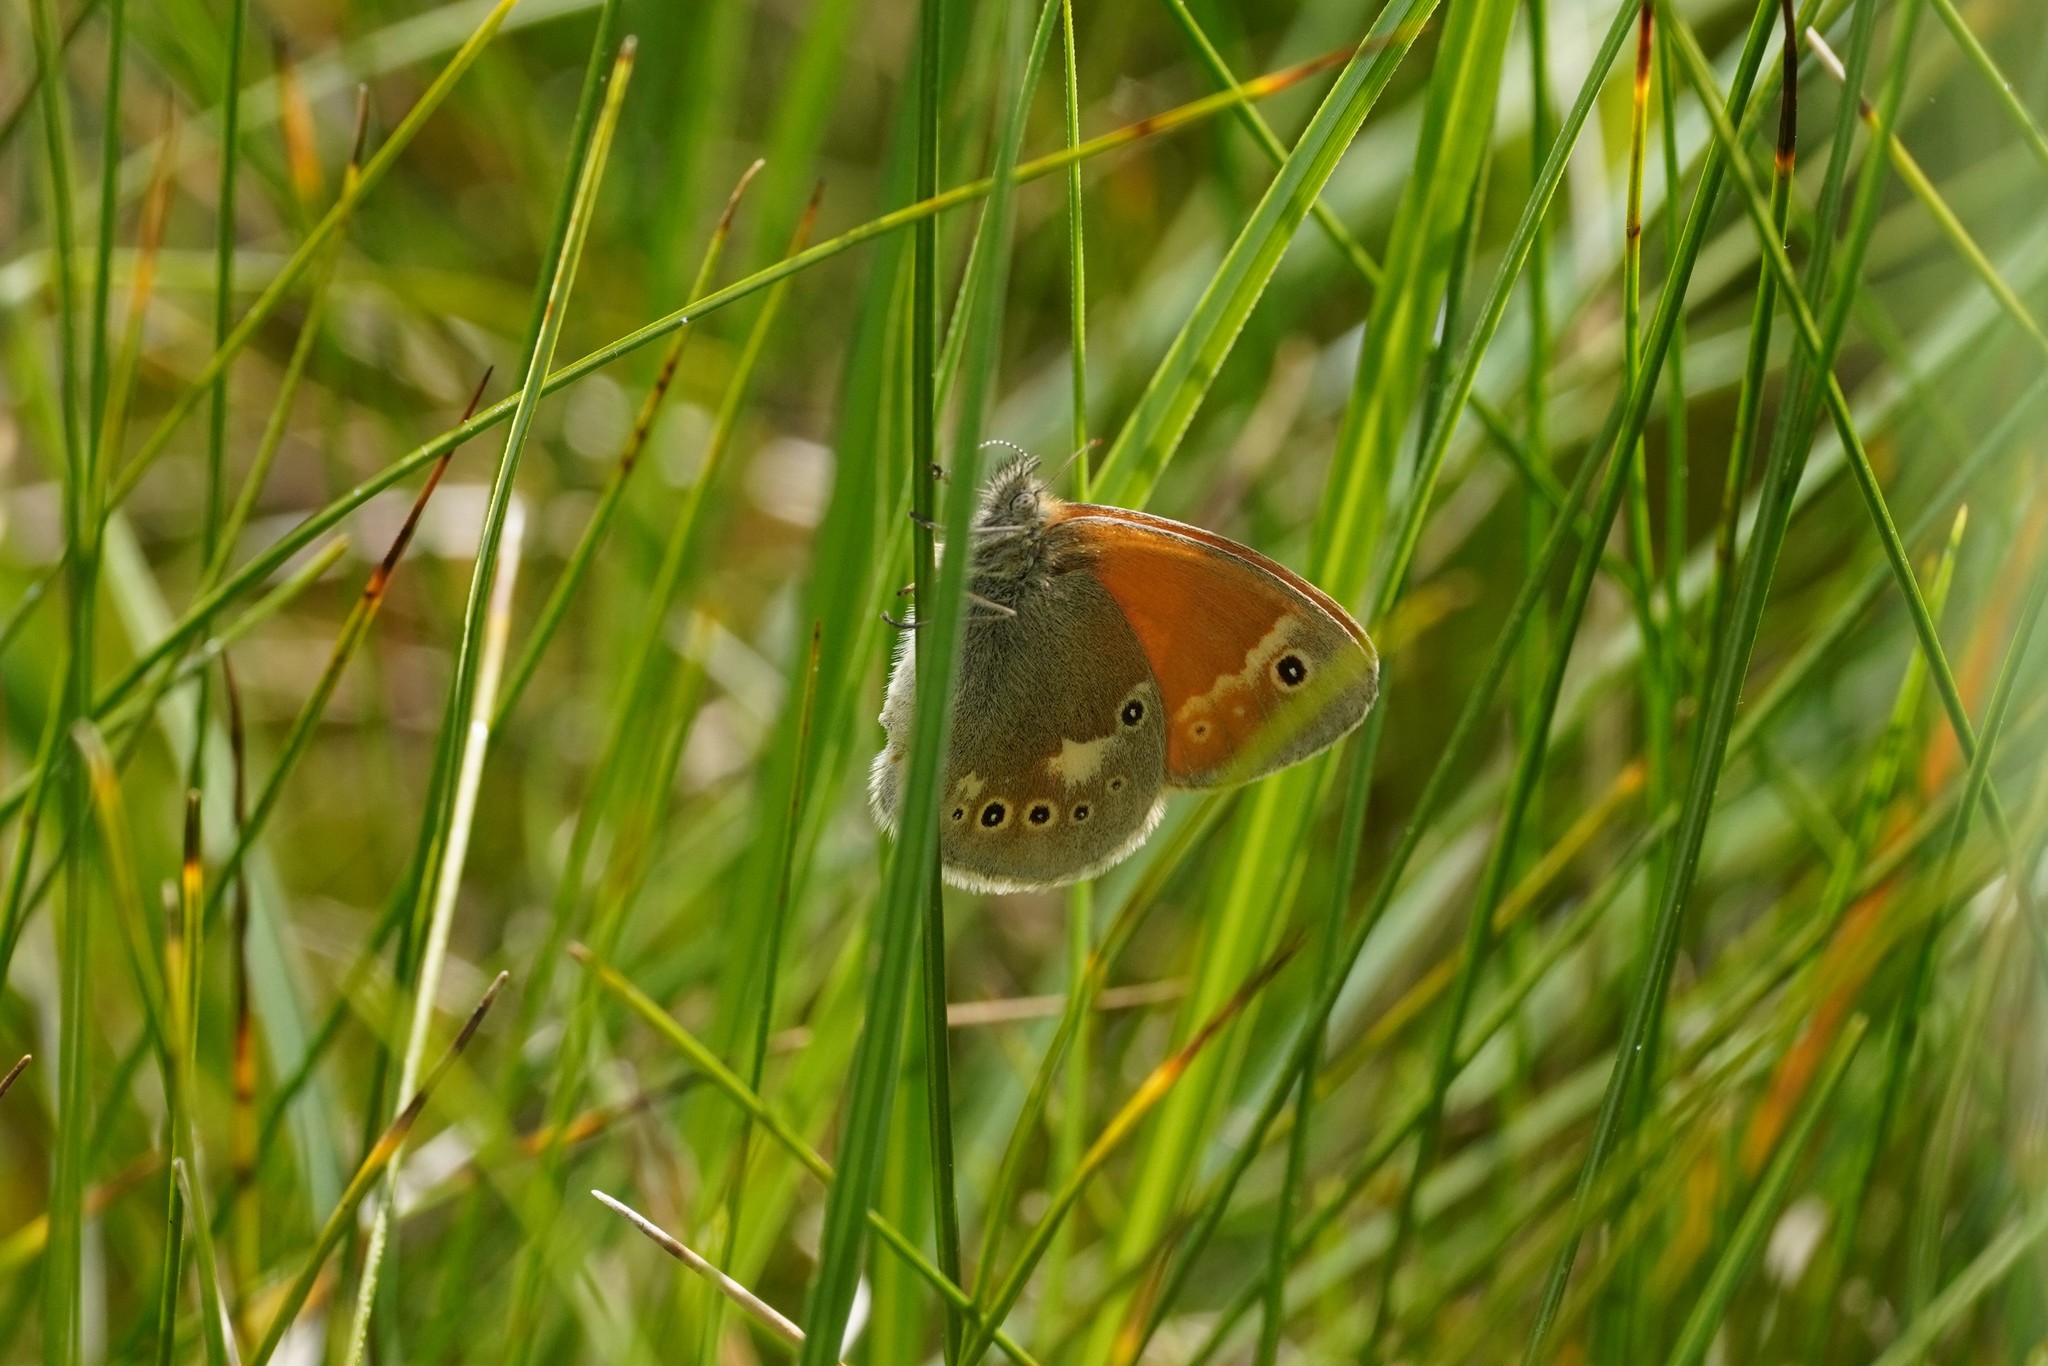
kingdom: Animalia
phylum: Arthropoda
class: Insecta
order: Lepidoptera
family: Nymphalidae
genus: Coenonympha
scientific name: Coenonympha tullia
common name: Large heath
